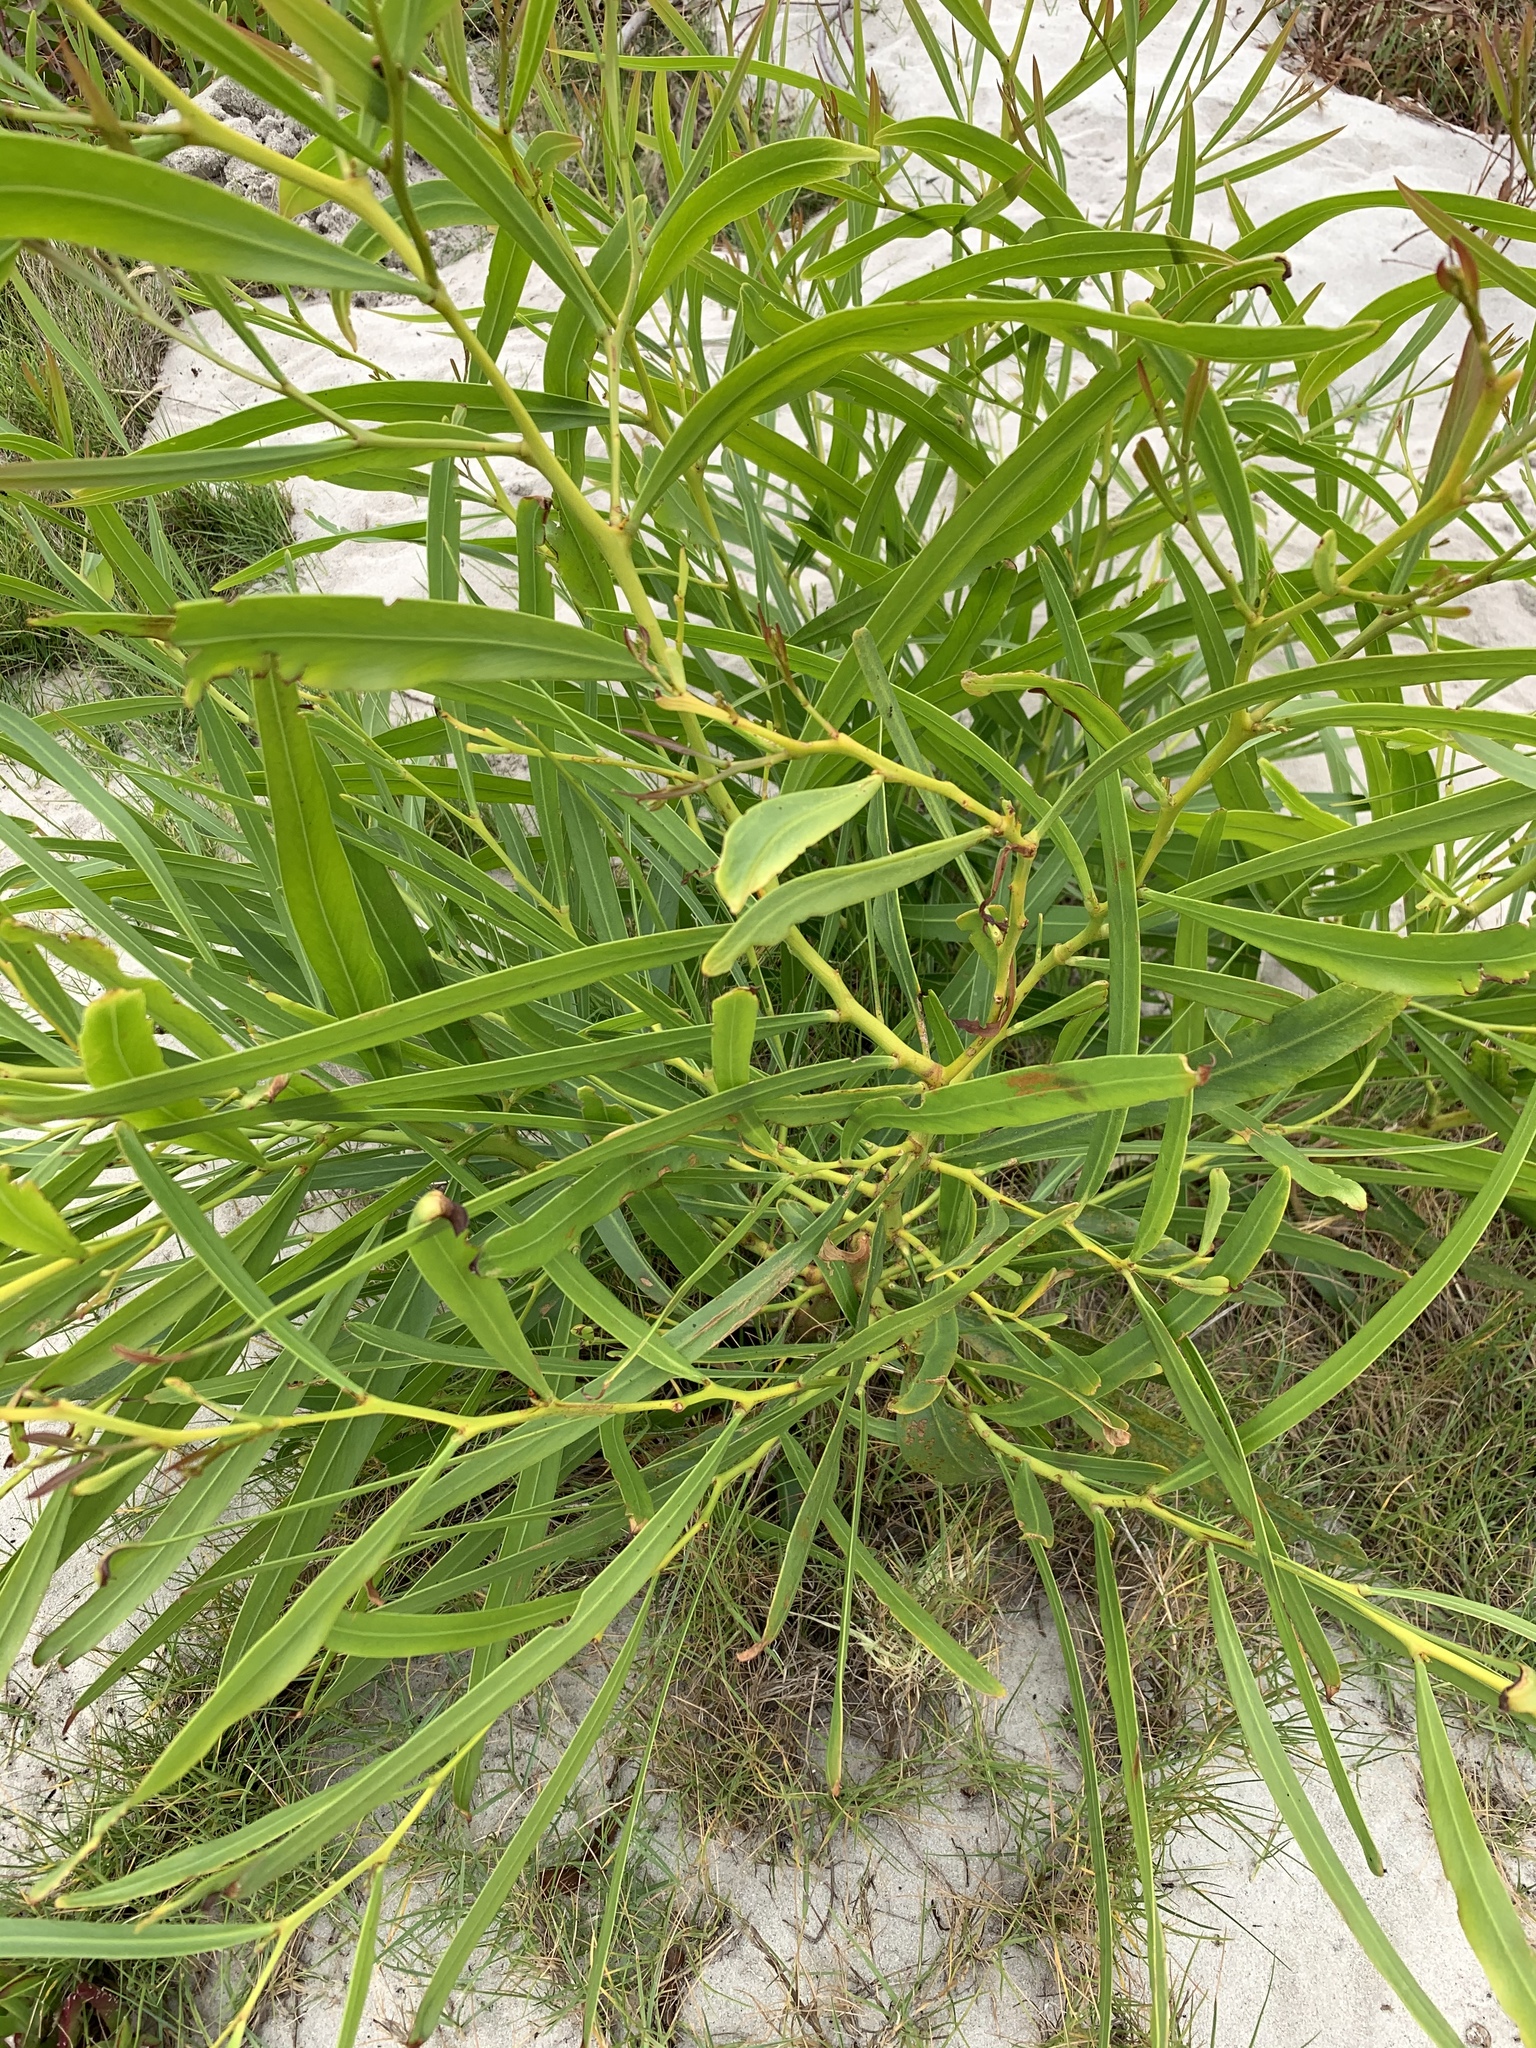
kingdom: Plantae
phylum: Tracheophyta
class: Magnoliopsida
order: Fabales
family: Fabaceae
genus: Acacia
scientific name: Acacia saligna
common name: Orange wattle
